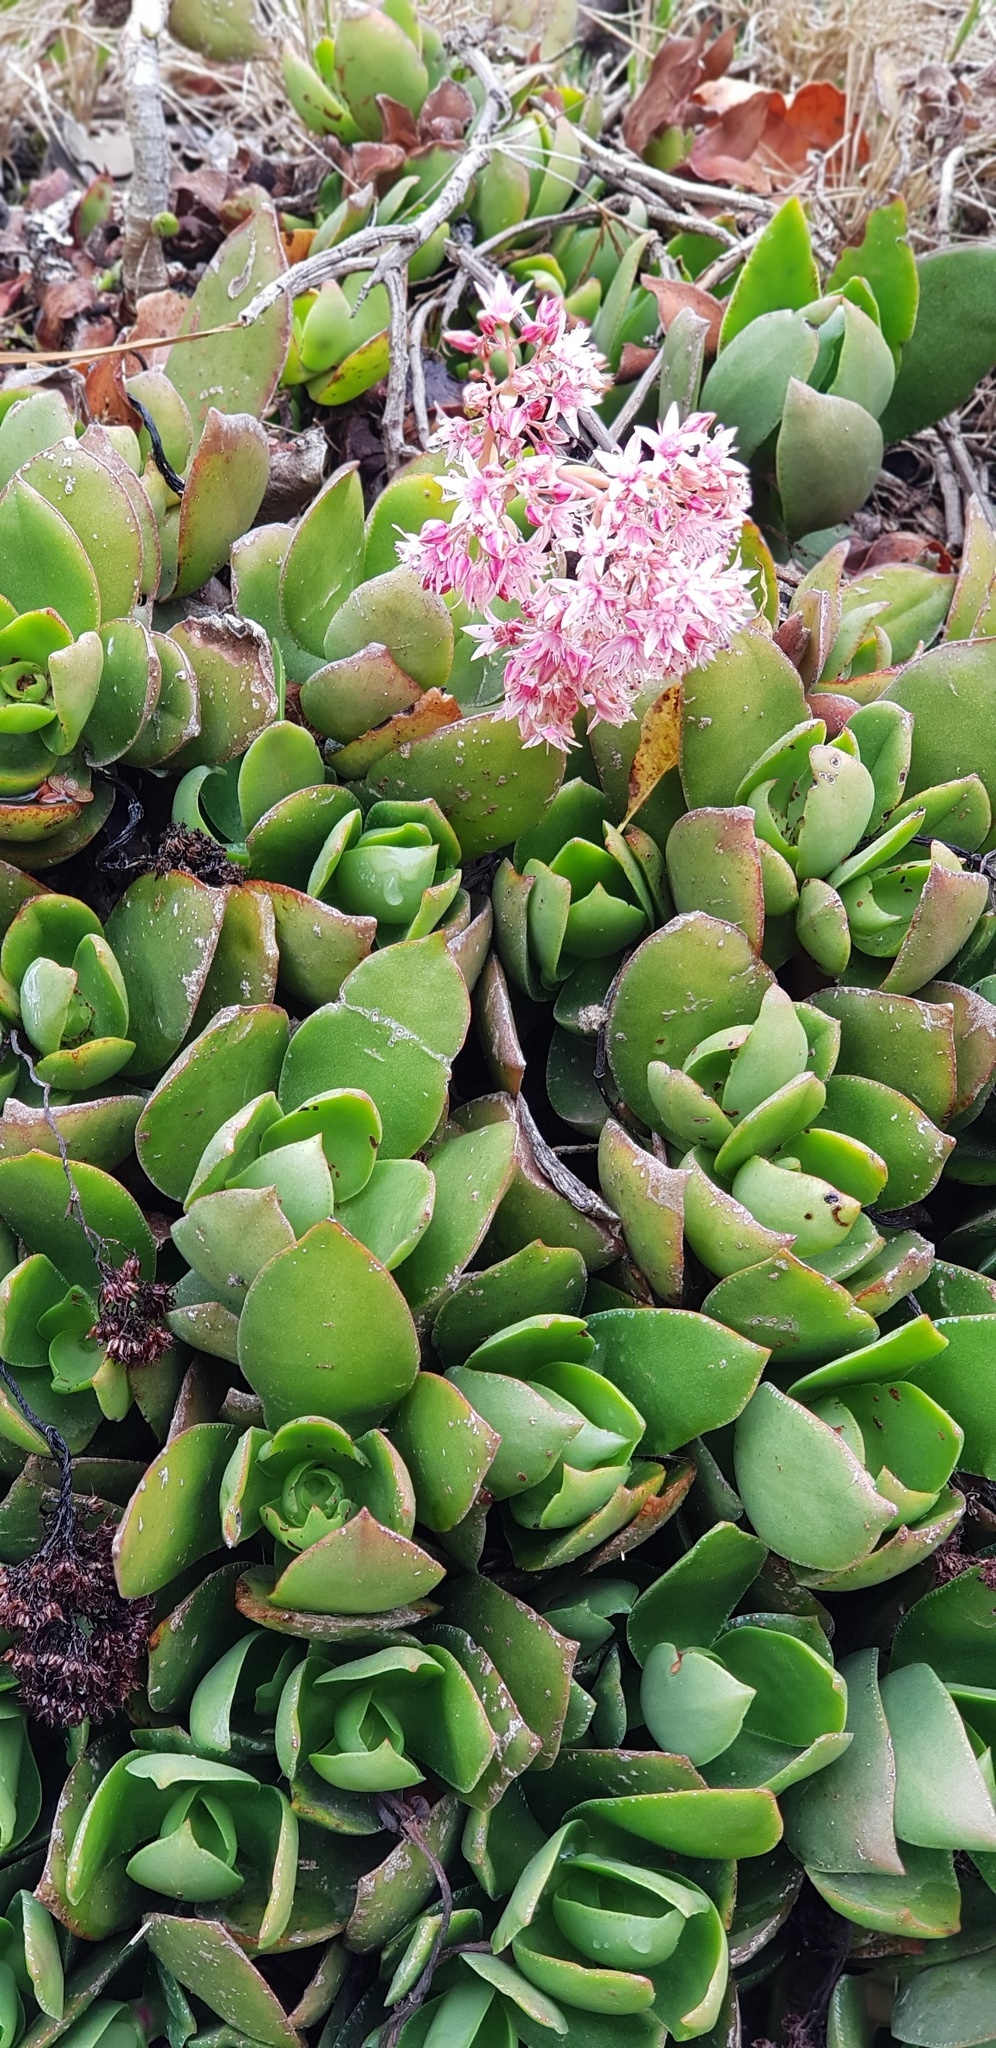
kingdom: Plantae
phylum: Tracheophyta
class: Magnoliopsida
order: Saxifragales
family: Crassulaceae
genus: Crassula
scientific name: Crassula lactea
